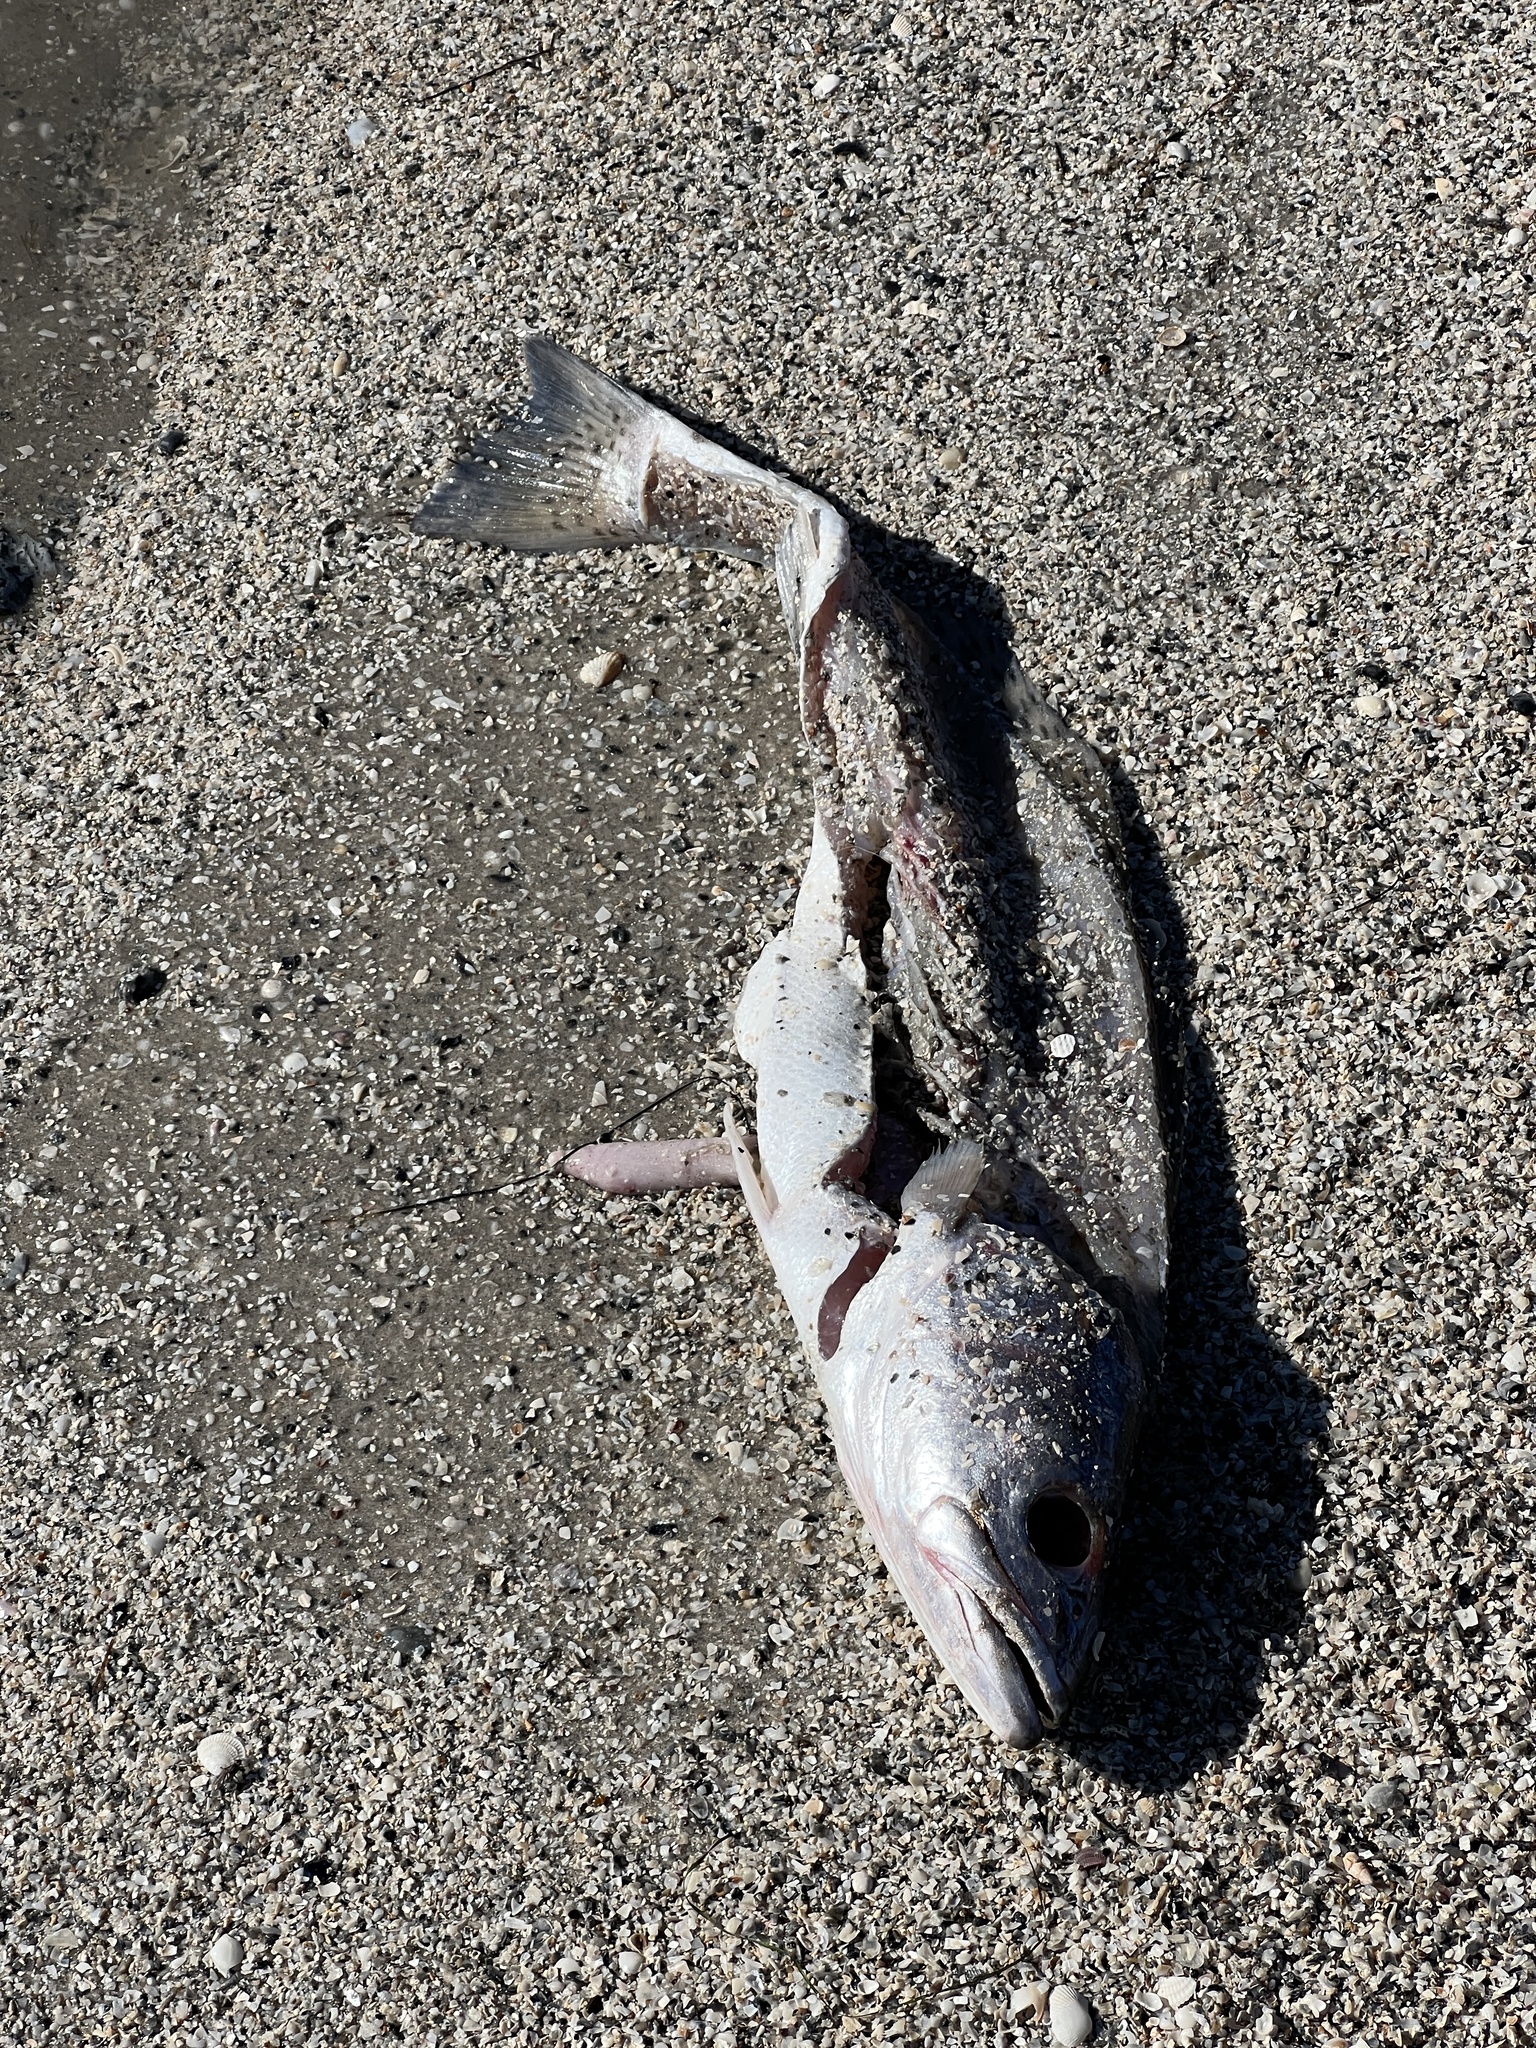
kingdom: Animalia
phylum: Chordata
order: Perciformes
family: Sciaenidae
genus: Cynoscion
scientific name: Cynoscion nebulosus
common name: Spotted seatrout
